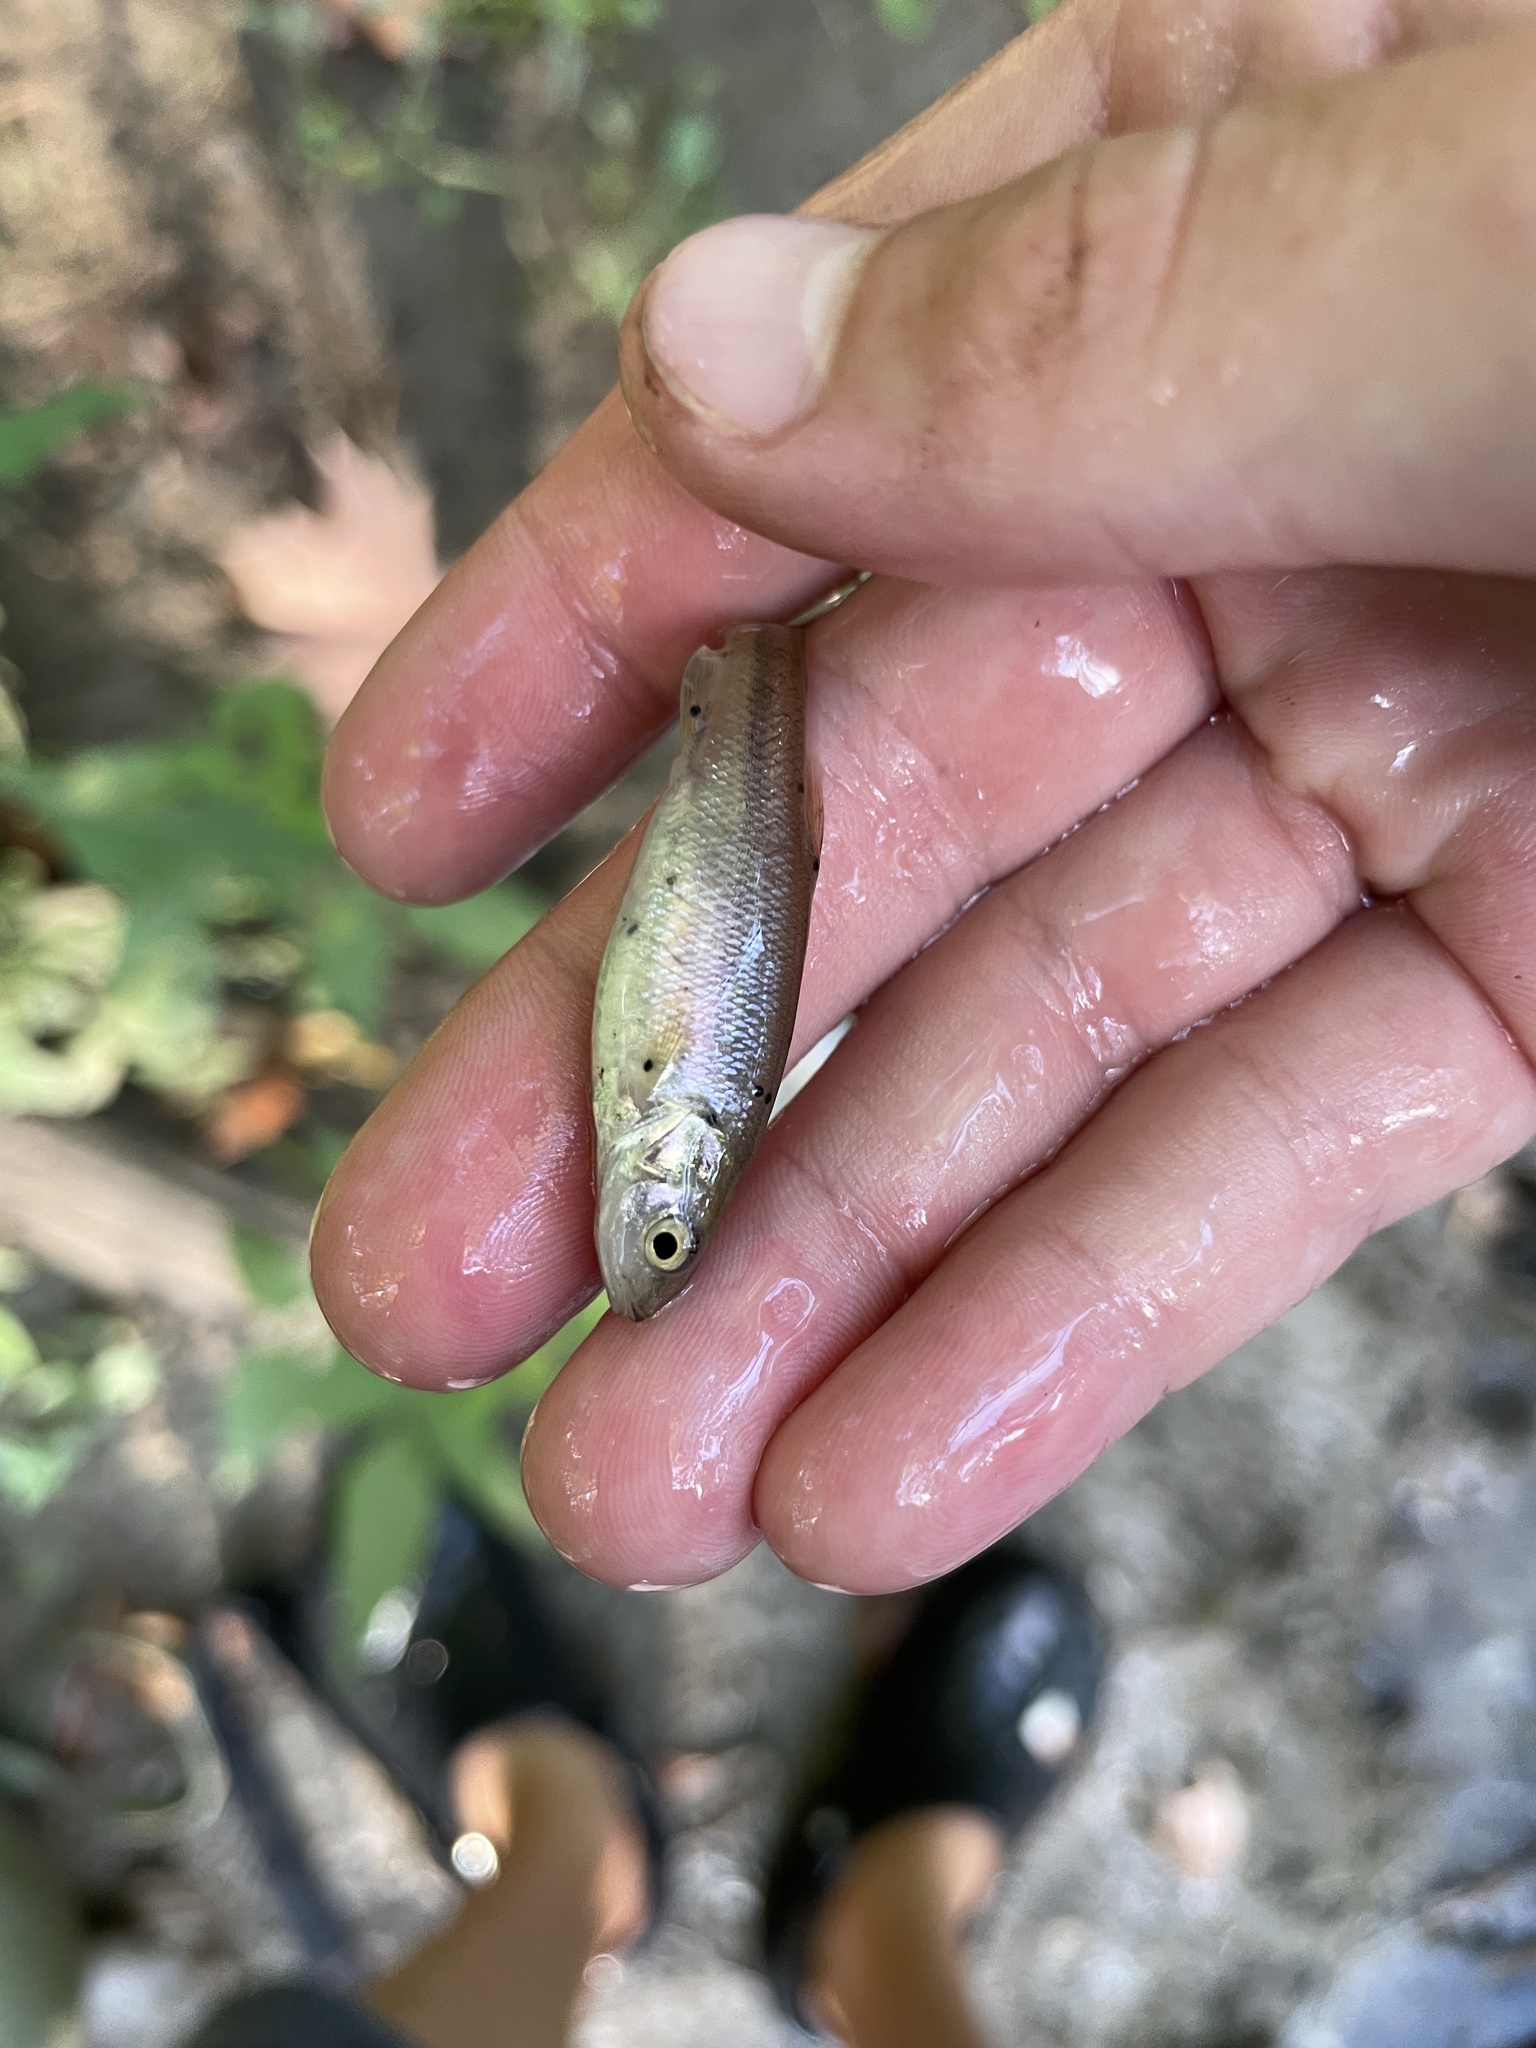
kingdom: Animalia
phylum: Platyhelminthes
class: Trematoda
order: Diplostomida
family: Diplostomidae
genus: Neascus
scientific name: Neascus
